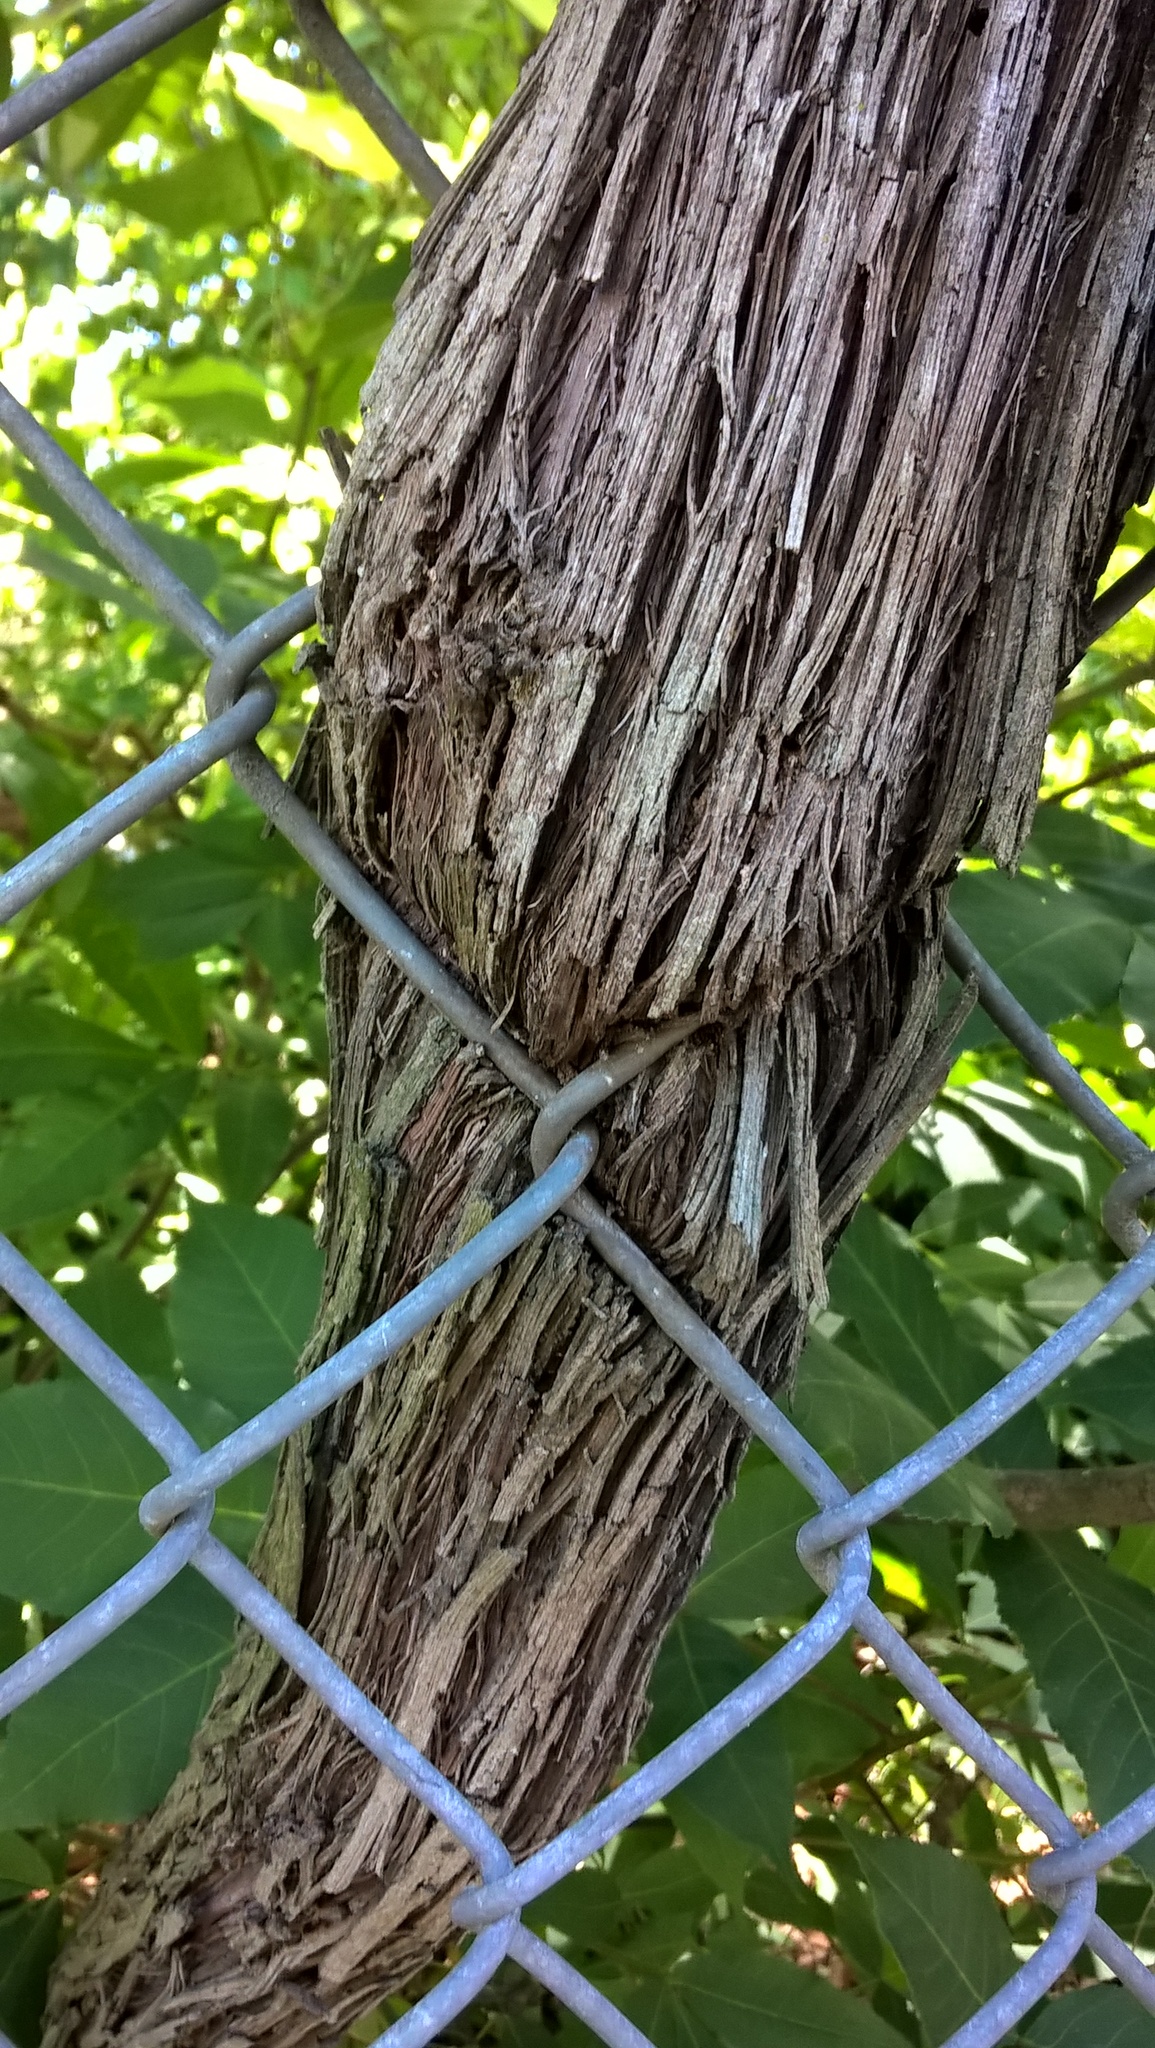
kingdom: Plantae
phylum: Tracheophyta
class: Magnoliopsida
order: Vitales
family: Vitaceae
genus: Vitis
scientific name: Vitis rotundifolia
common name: Muscadine grape
